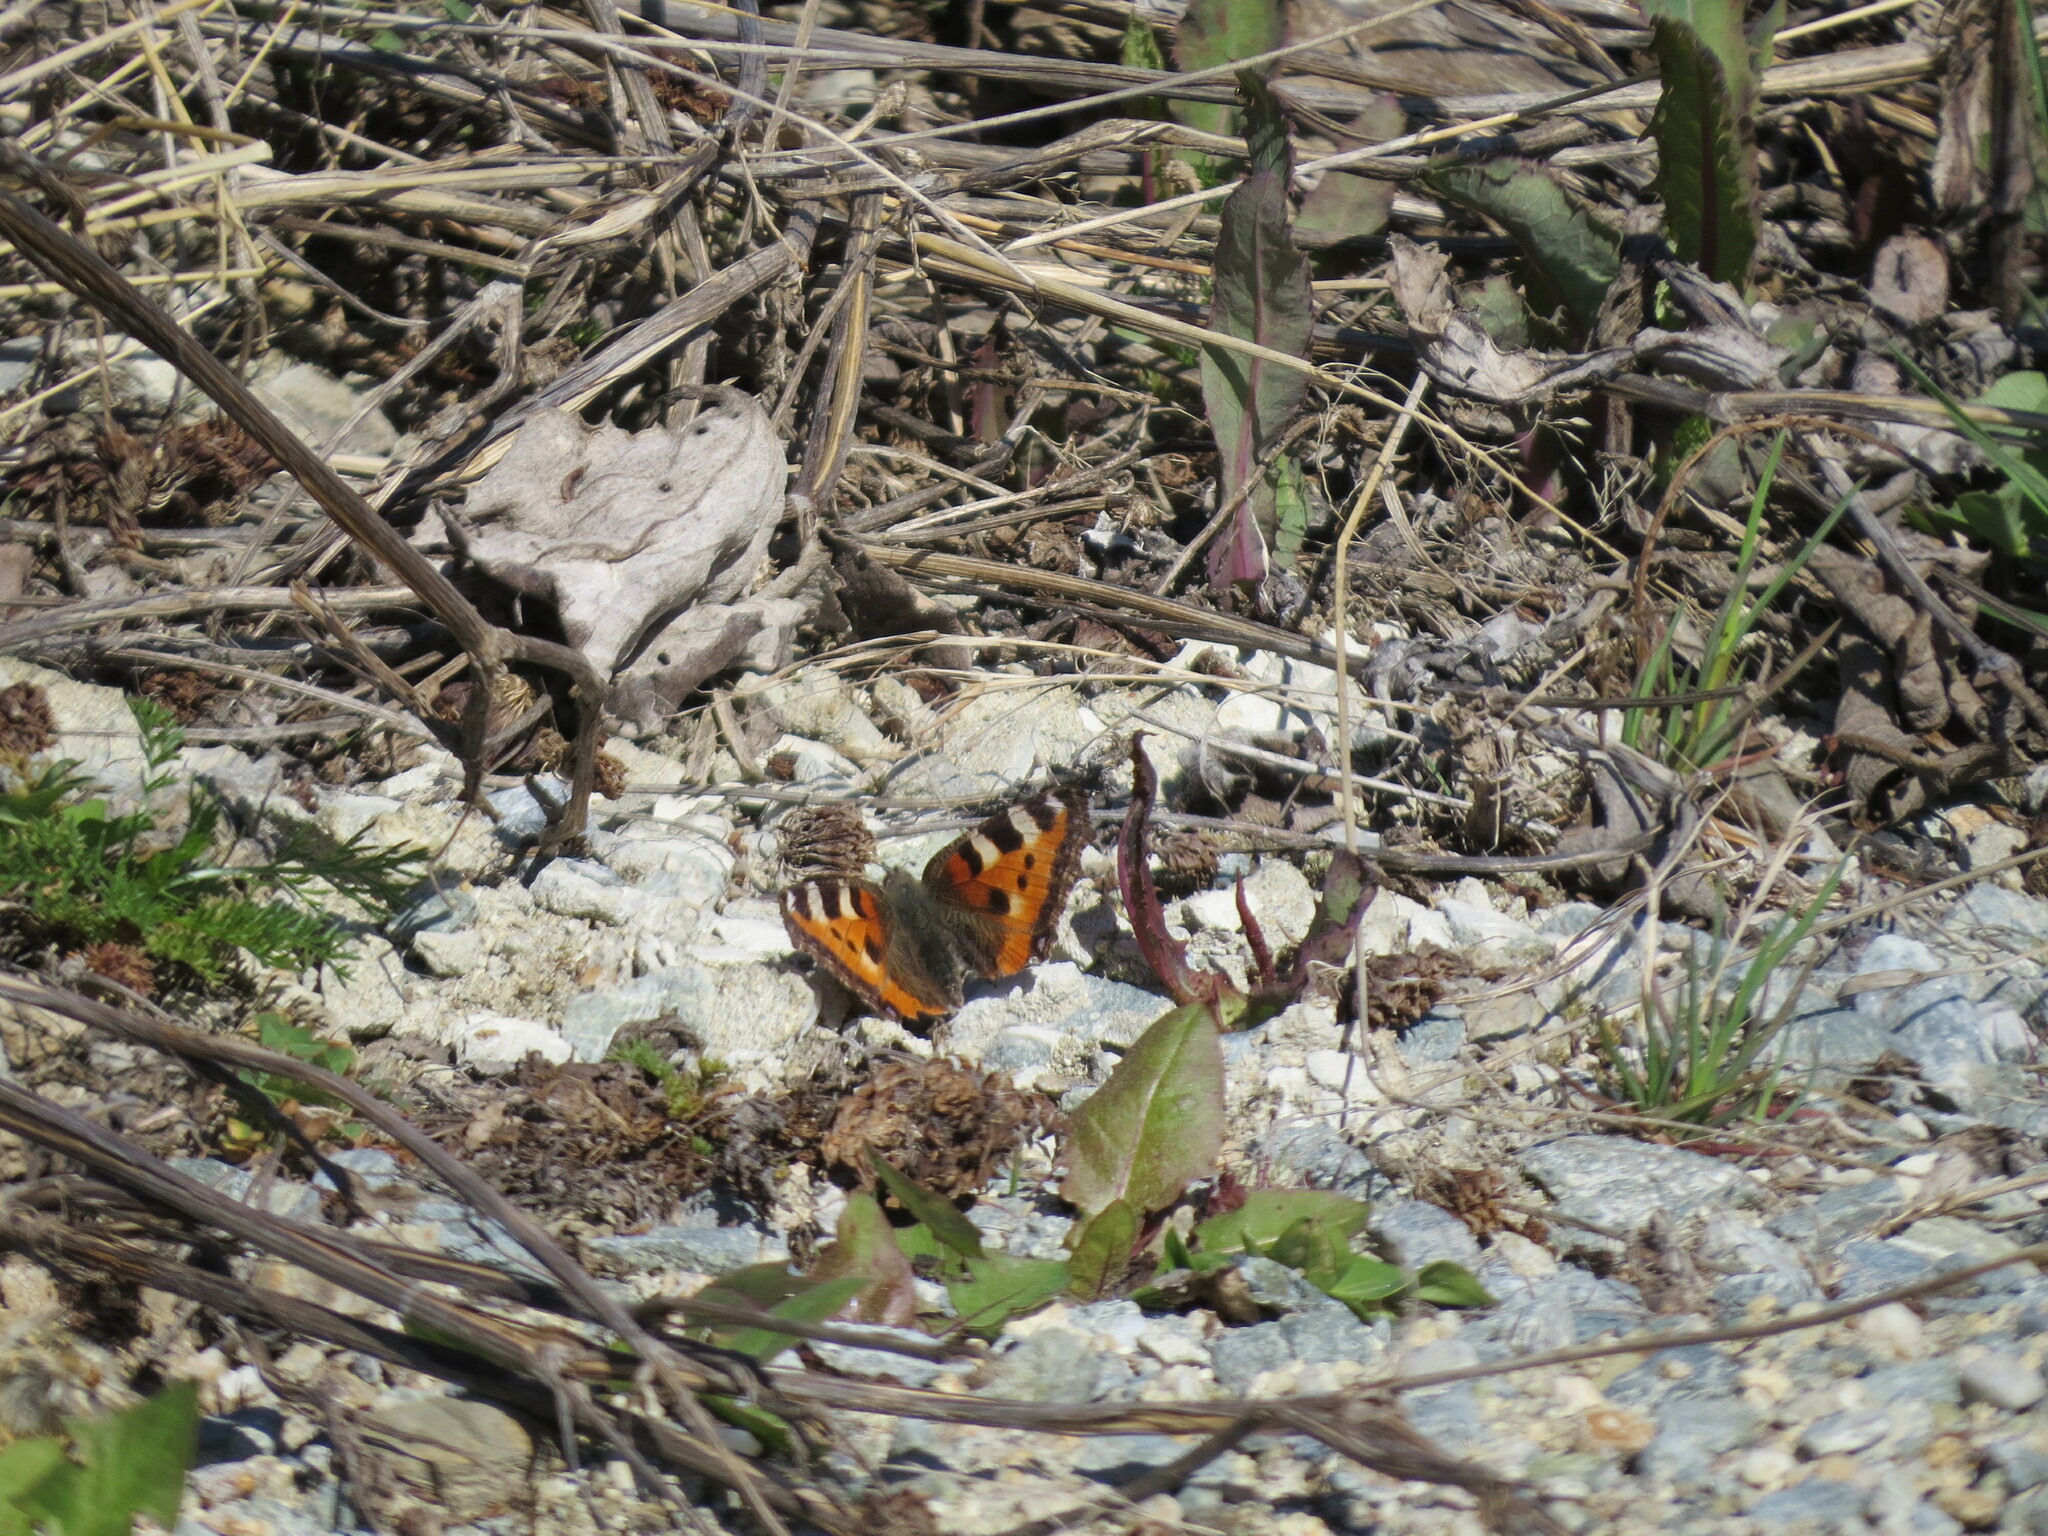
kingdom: Animalia
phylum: Arthropoda
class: Insecta
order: Lepidoptera
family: Nymphalidae
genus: Aglais
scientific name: Aglais urticae
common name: Small tortoiseshell
